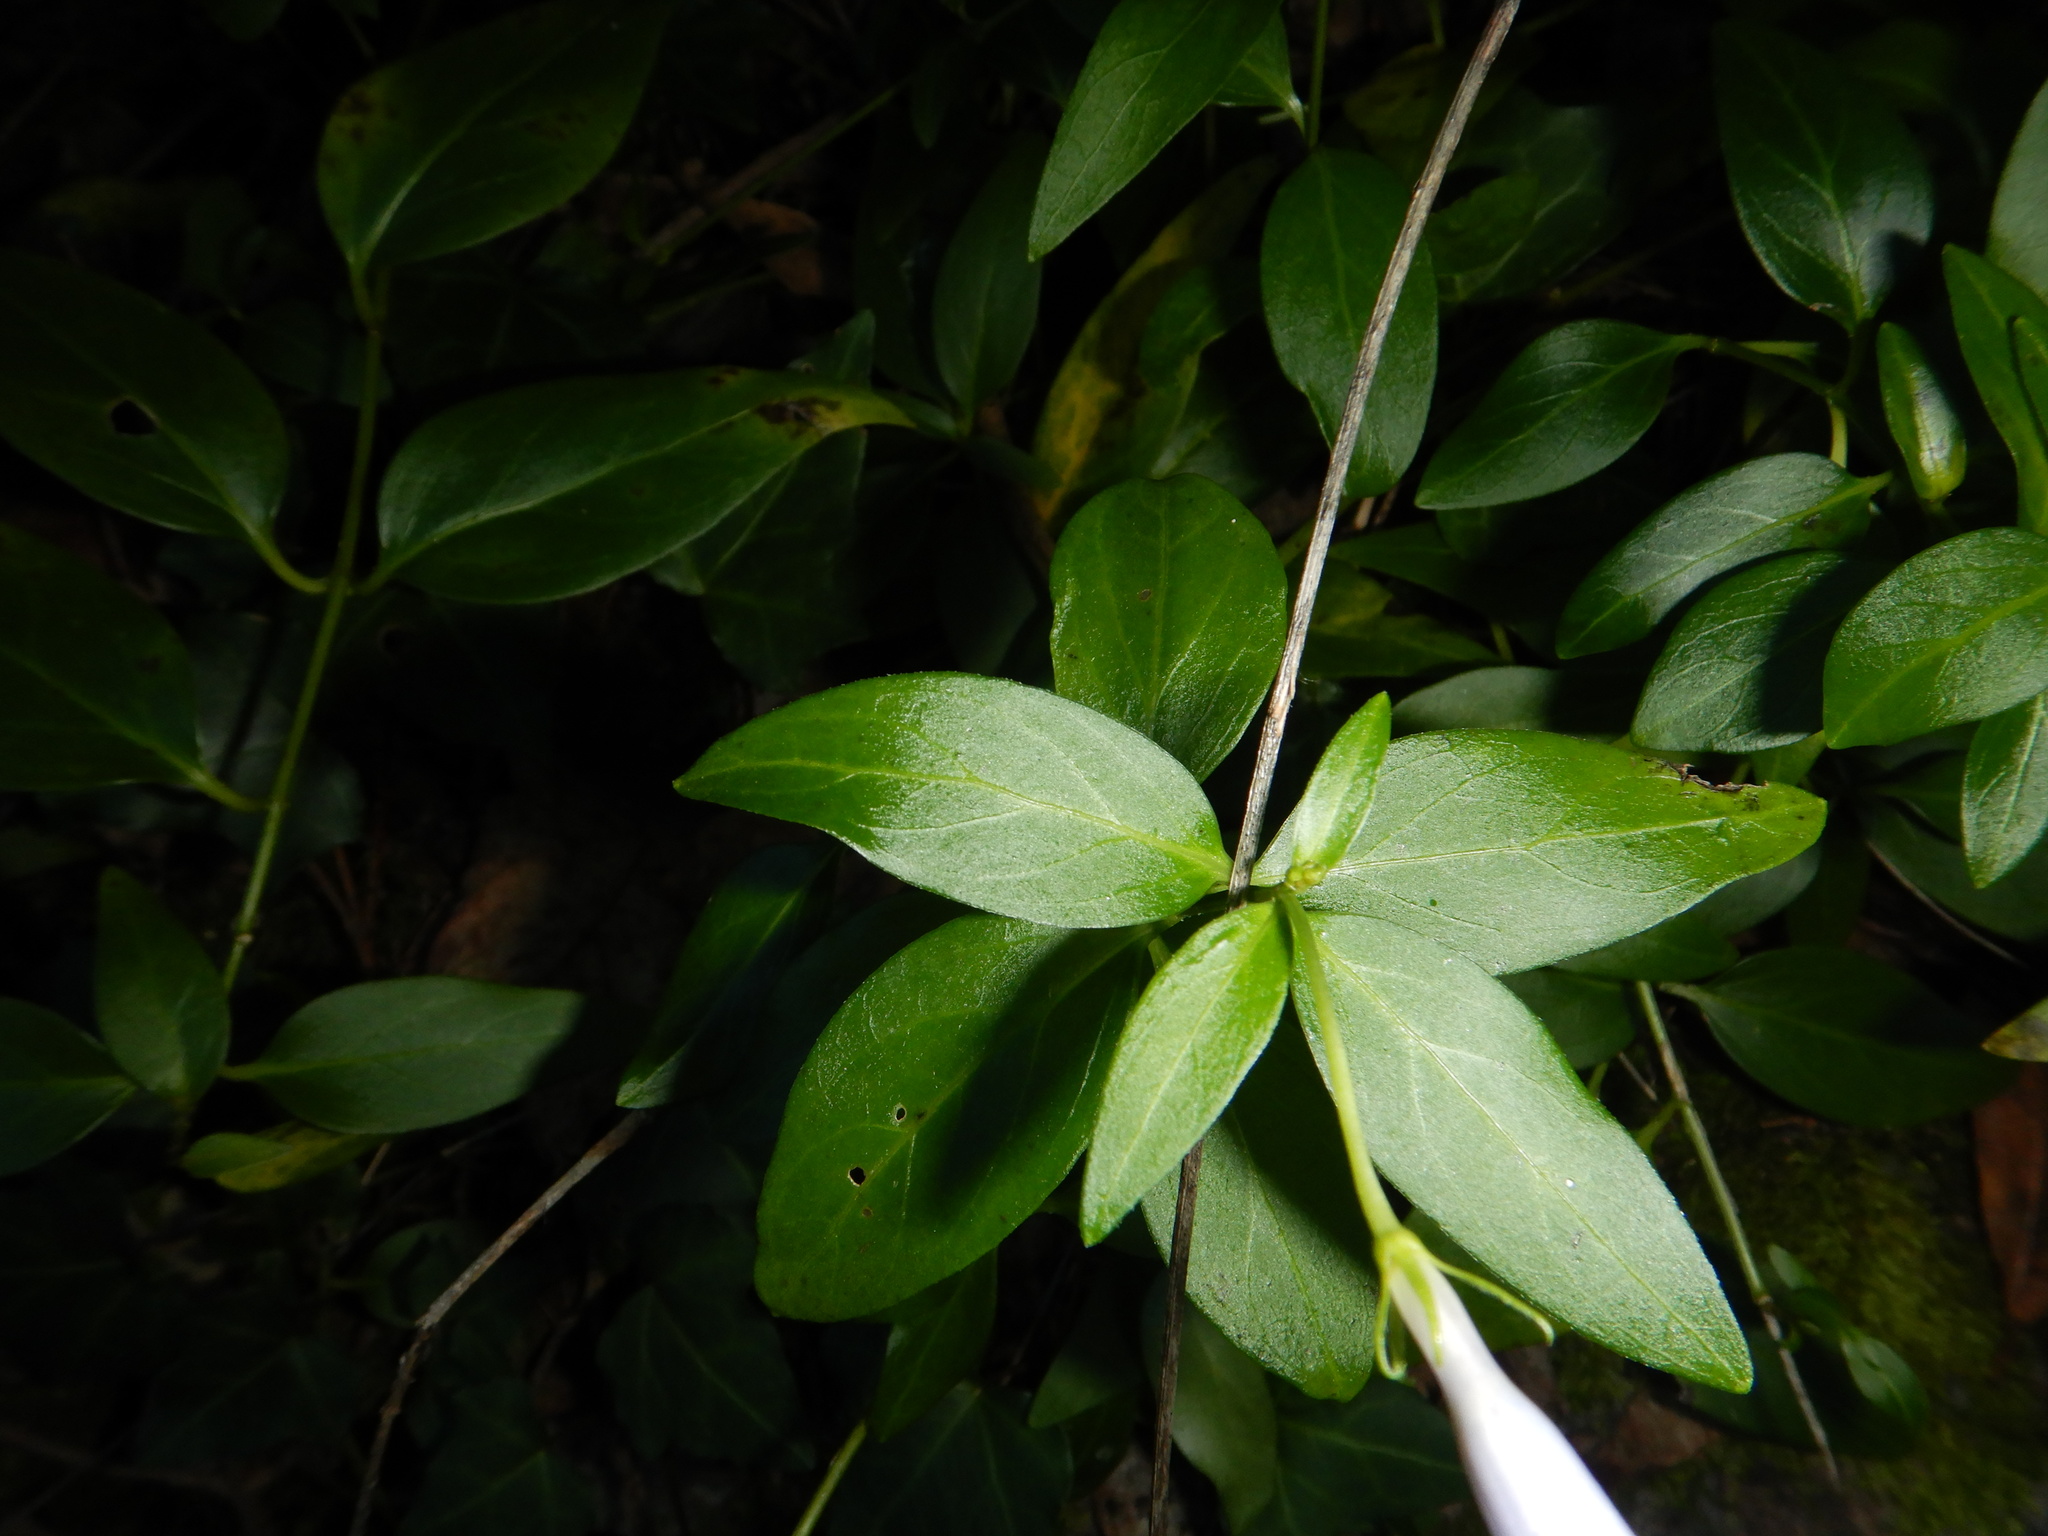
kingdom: Plantae
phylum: Tracheophyta
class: Magnoliopsida
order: Gentianales
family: Apocynaceae
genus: Vinca
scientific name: Vinca difformis
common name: Intermediate periwinkle
